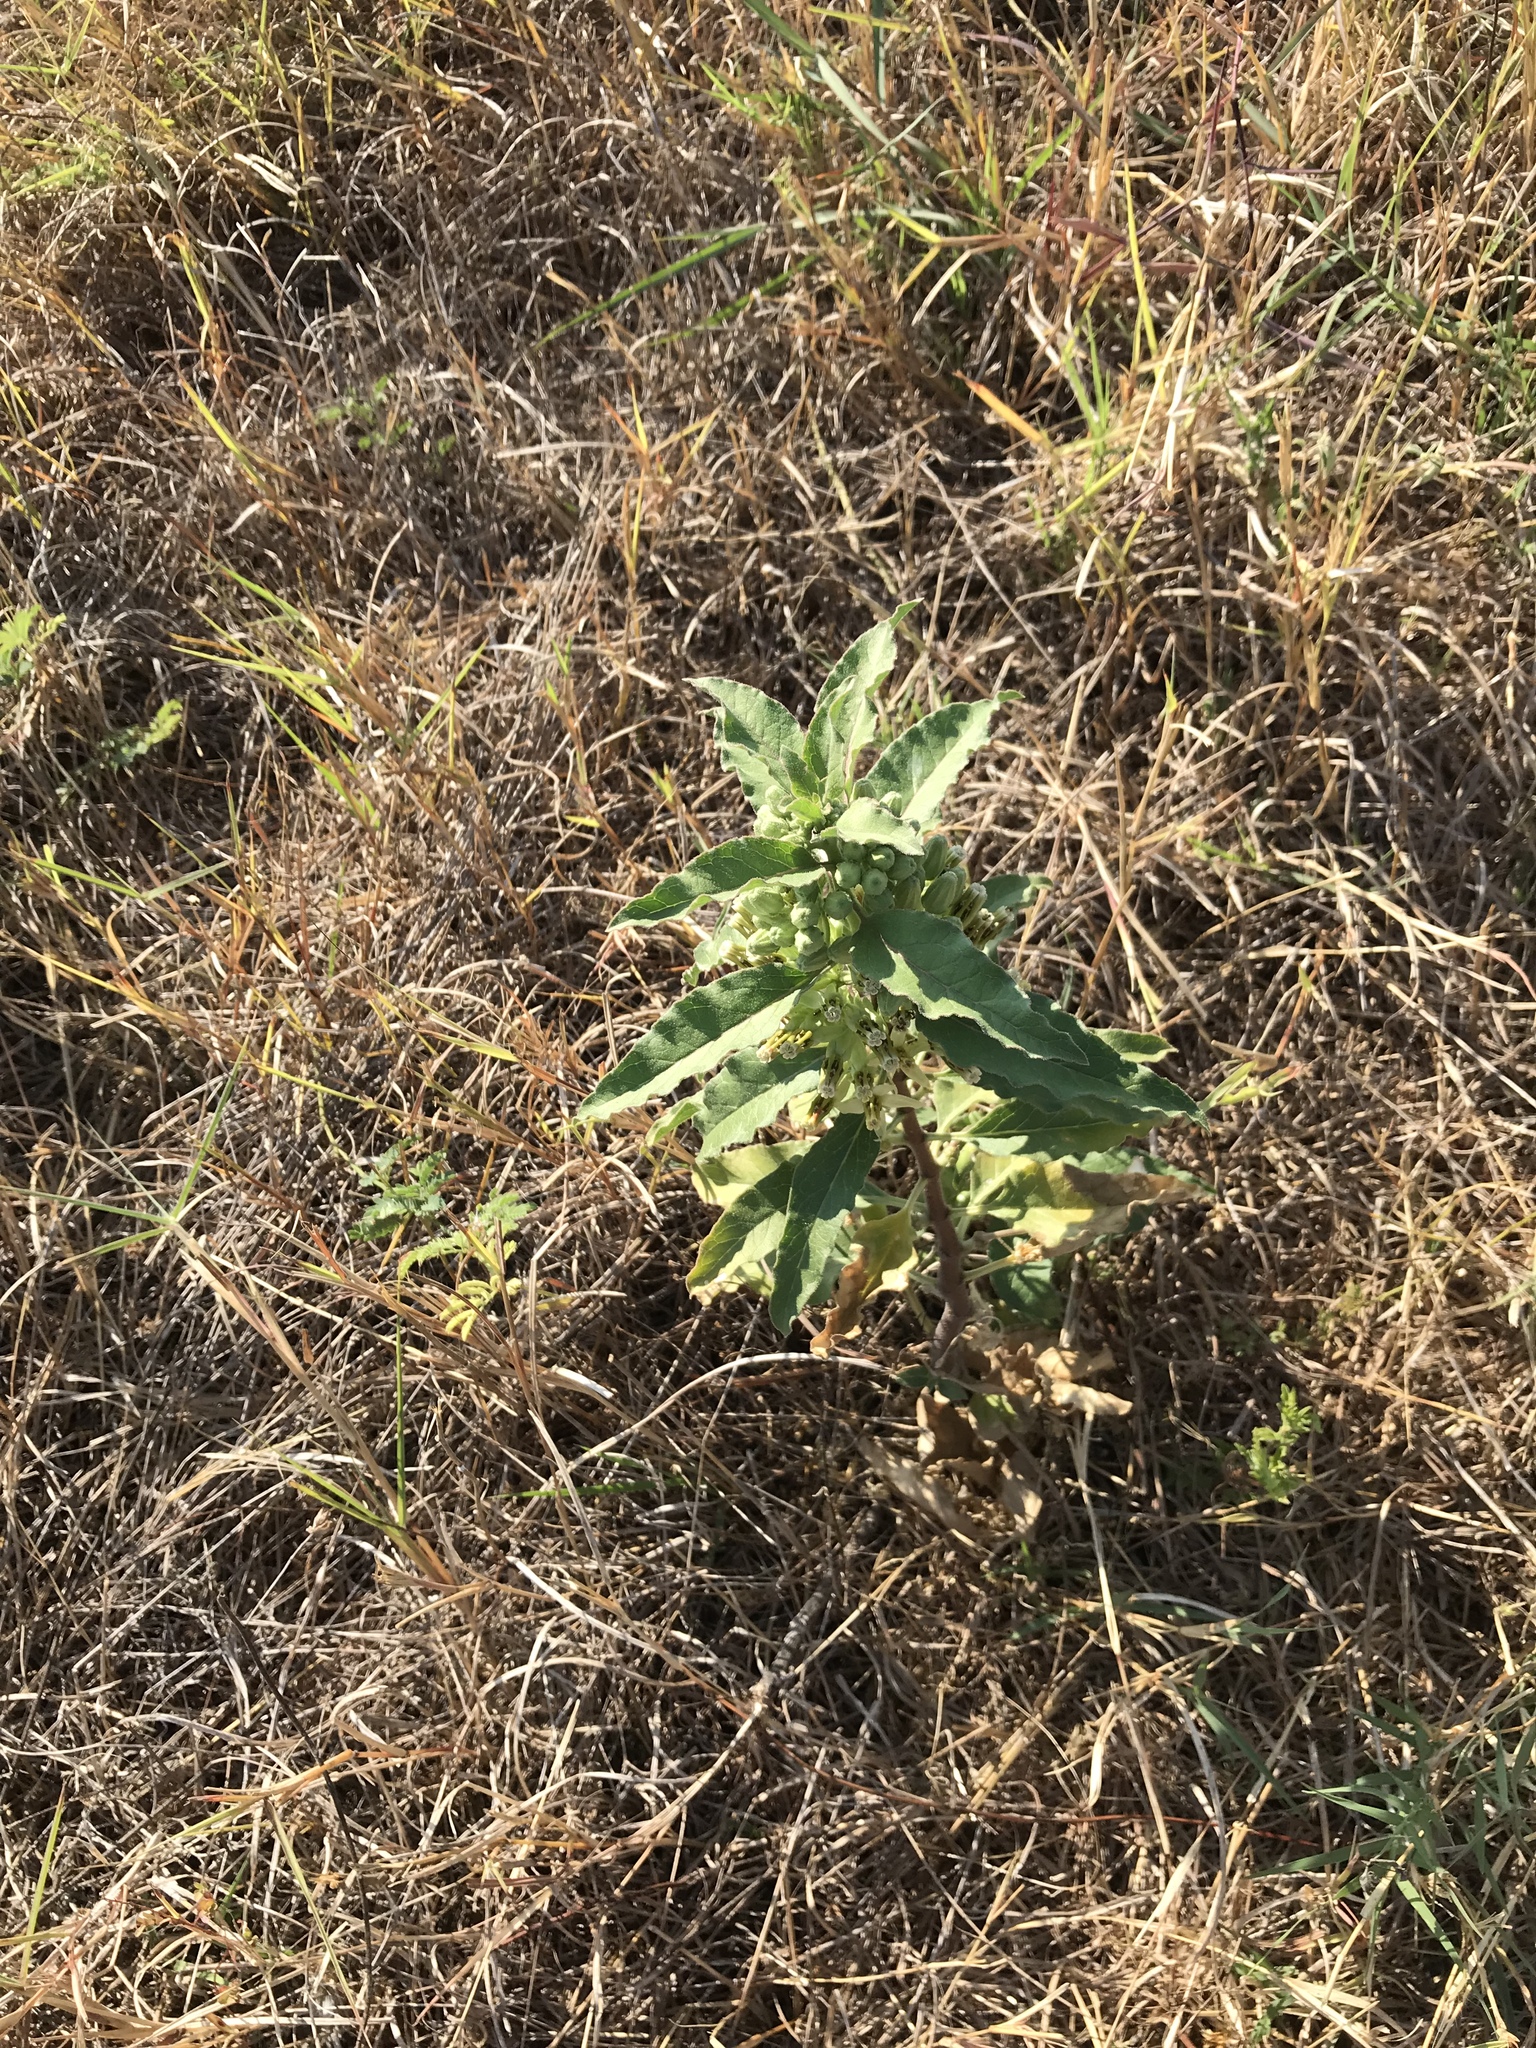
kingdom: Plantae
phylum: Tracheophyta
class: Magnoliopsida
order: Gentianales
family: Apocynaceae
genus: Asclepias
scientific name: Asclepias oenotheroides
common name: Zizotes milkweed
